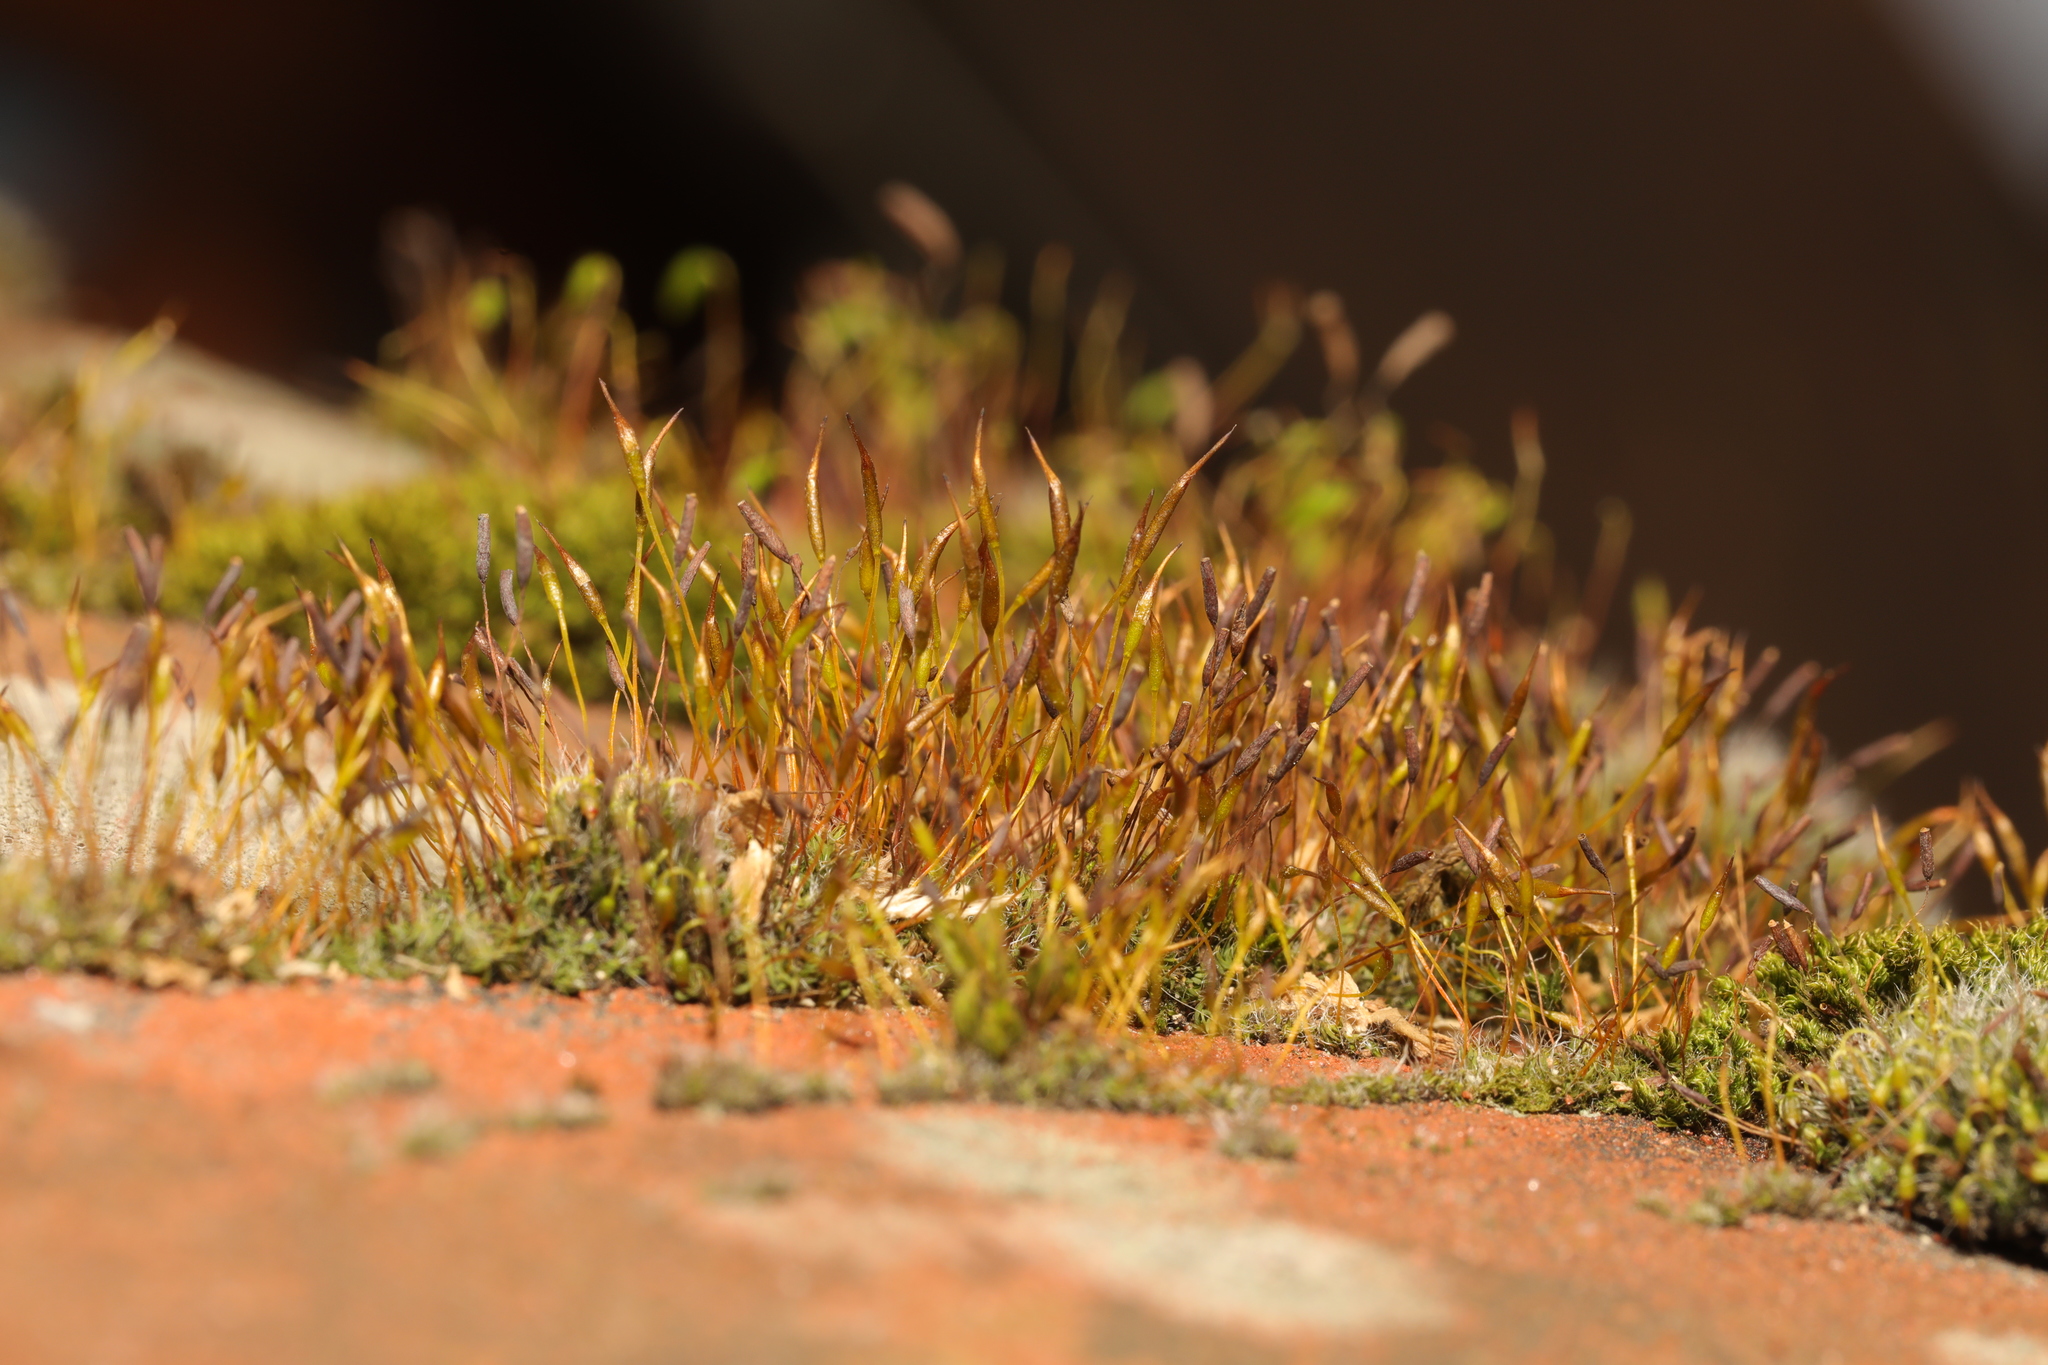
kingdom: Plantae
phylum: Bryophyta
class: Bryopsida
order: Pottiales
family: Pottiaceae
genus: Tortula
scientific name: Tortula muralis
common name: Wall screw-moss
